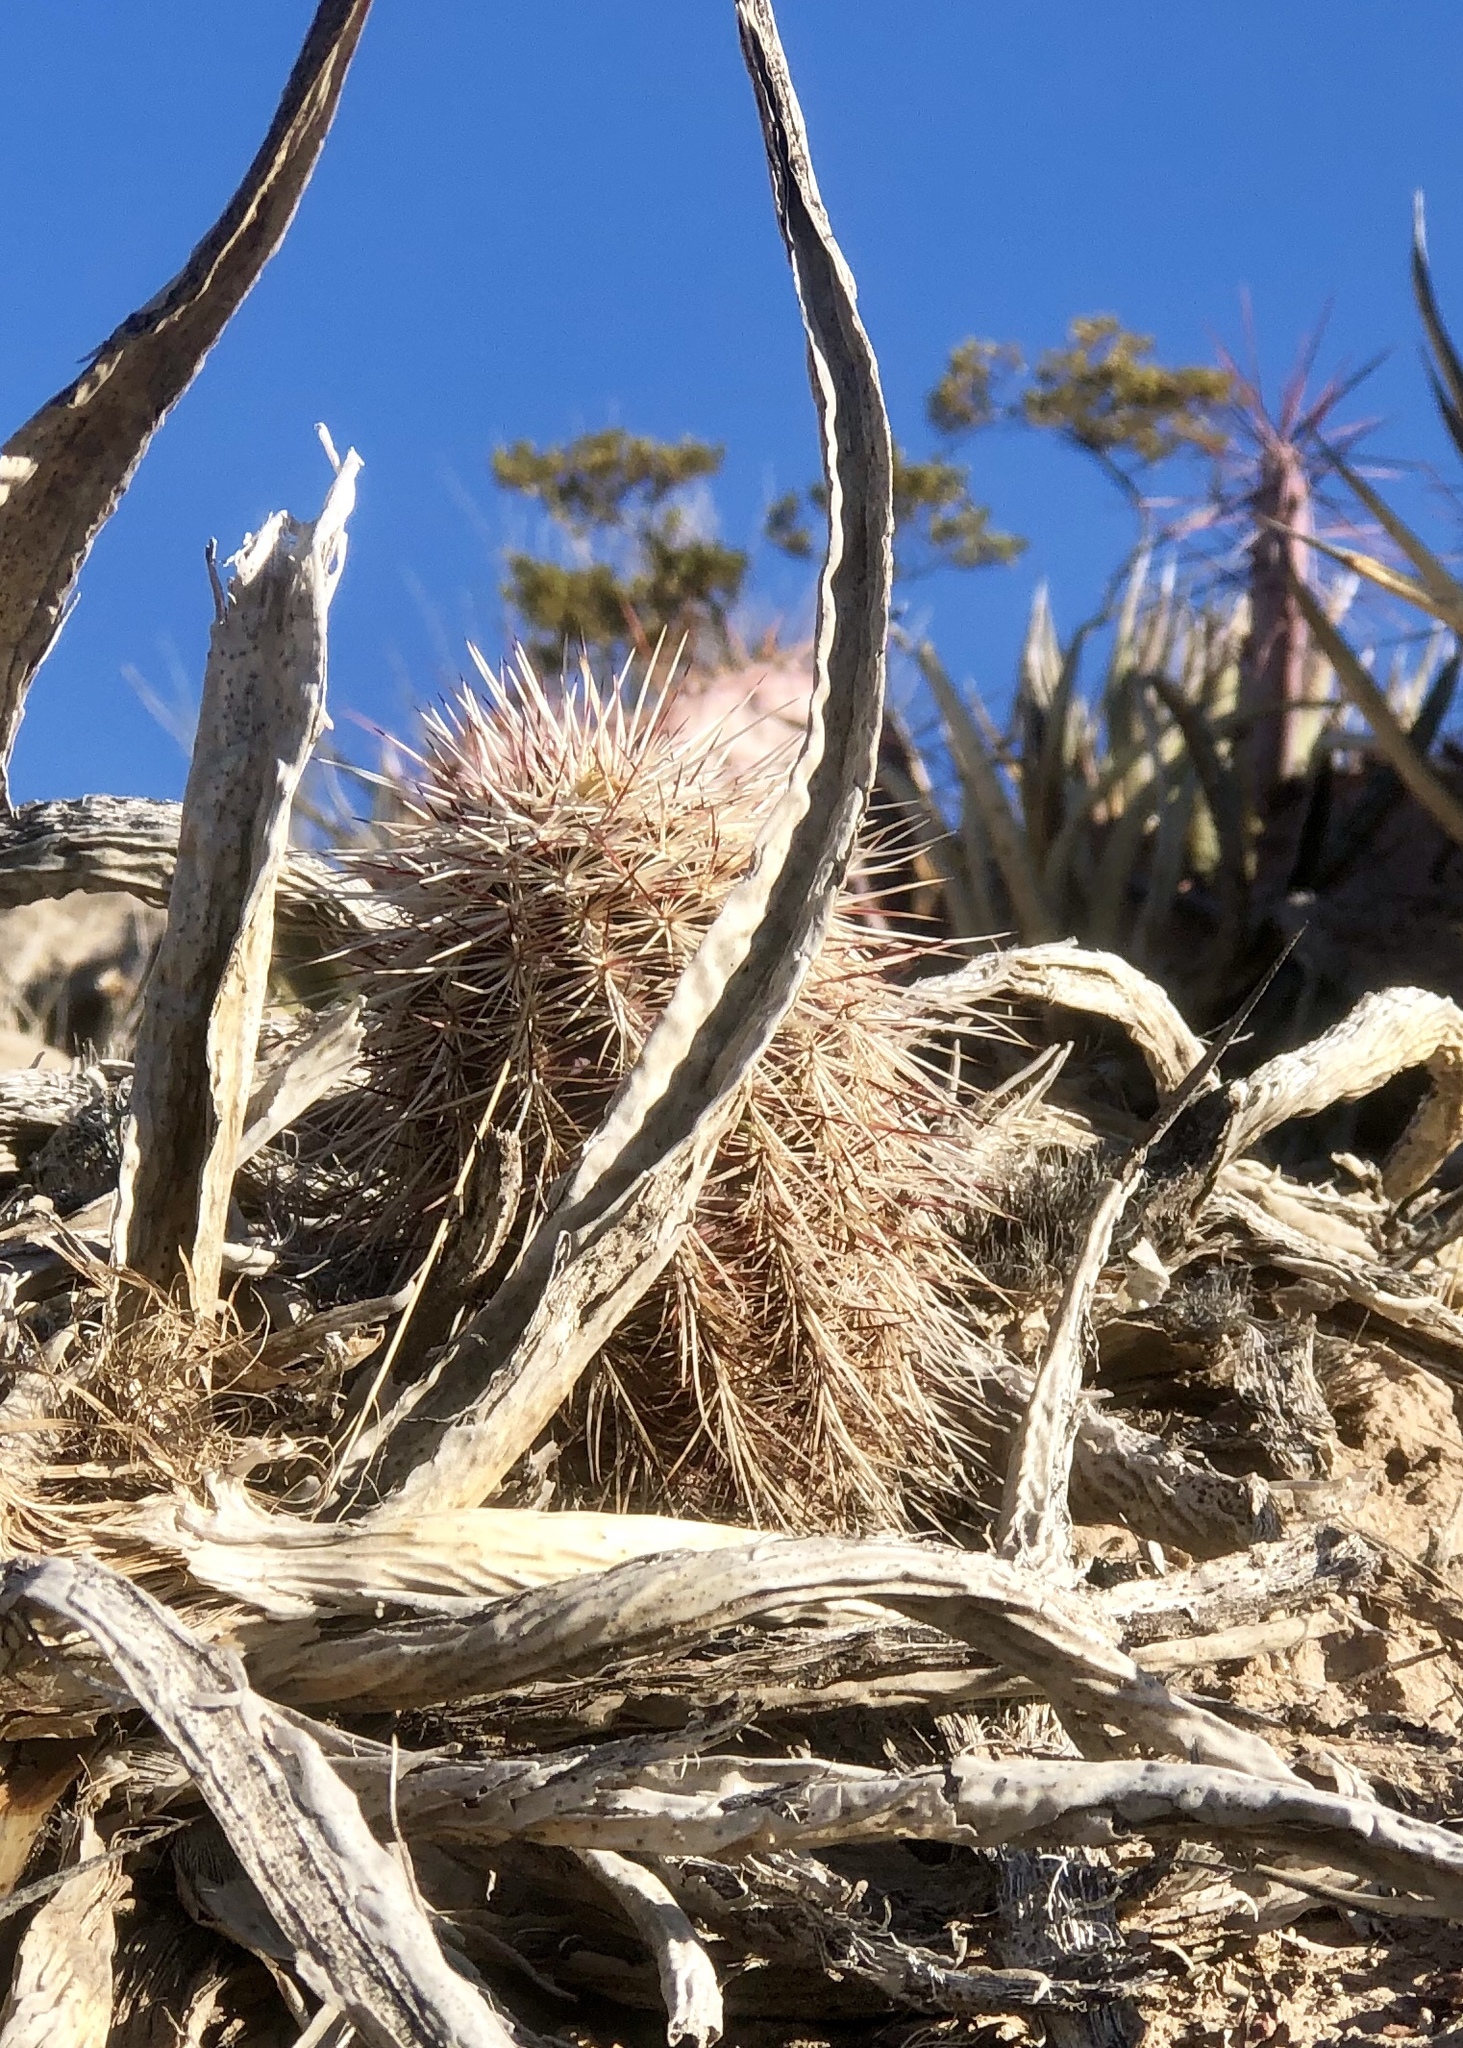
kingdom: Plantae
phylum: Tracheophyta
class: Magnoliopsida
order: Caryophyllales
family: Cactaceae
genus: Echinocereus
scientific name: Echinocereus viridiflorus
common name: Nylon hedgehog cactus
